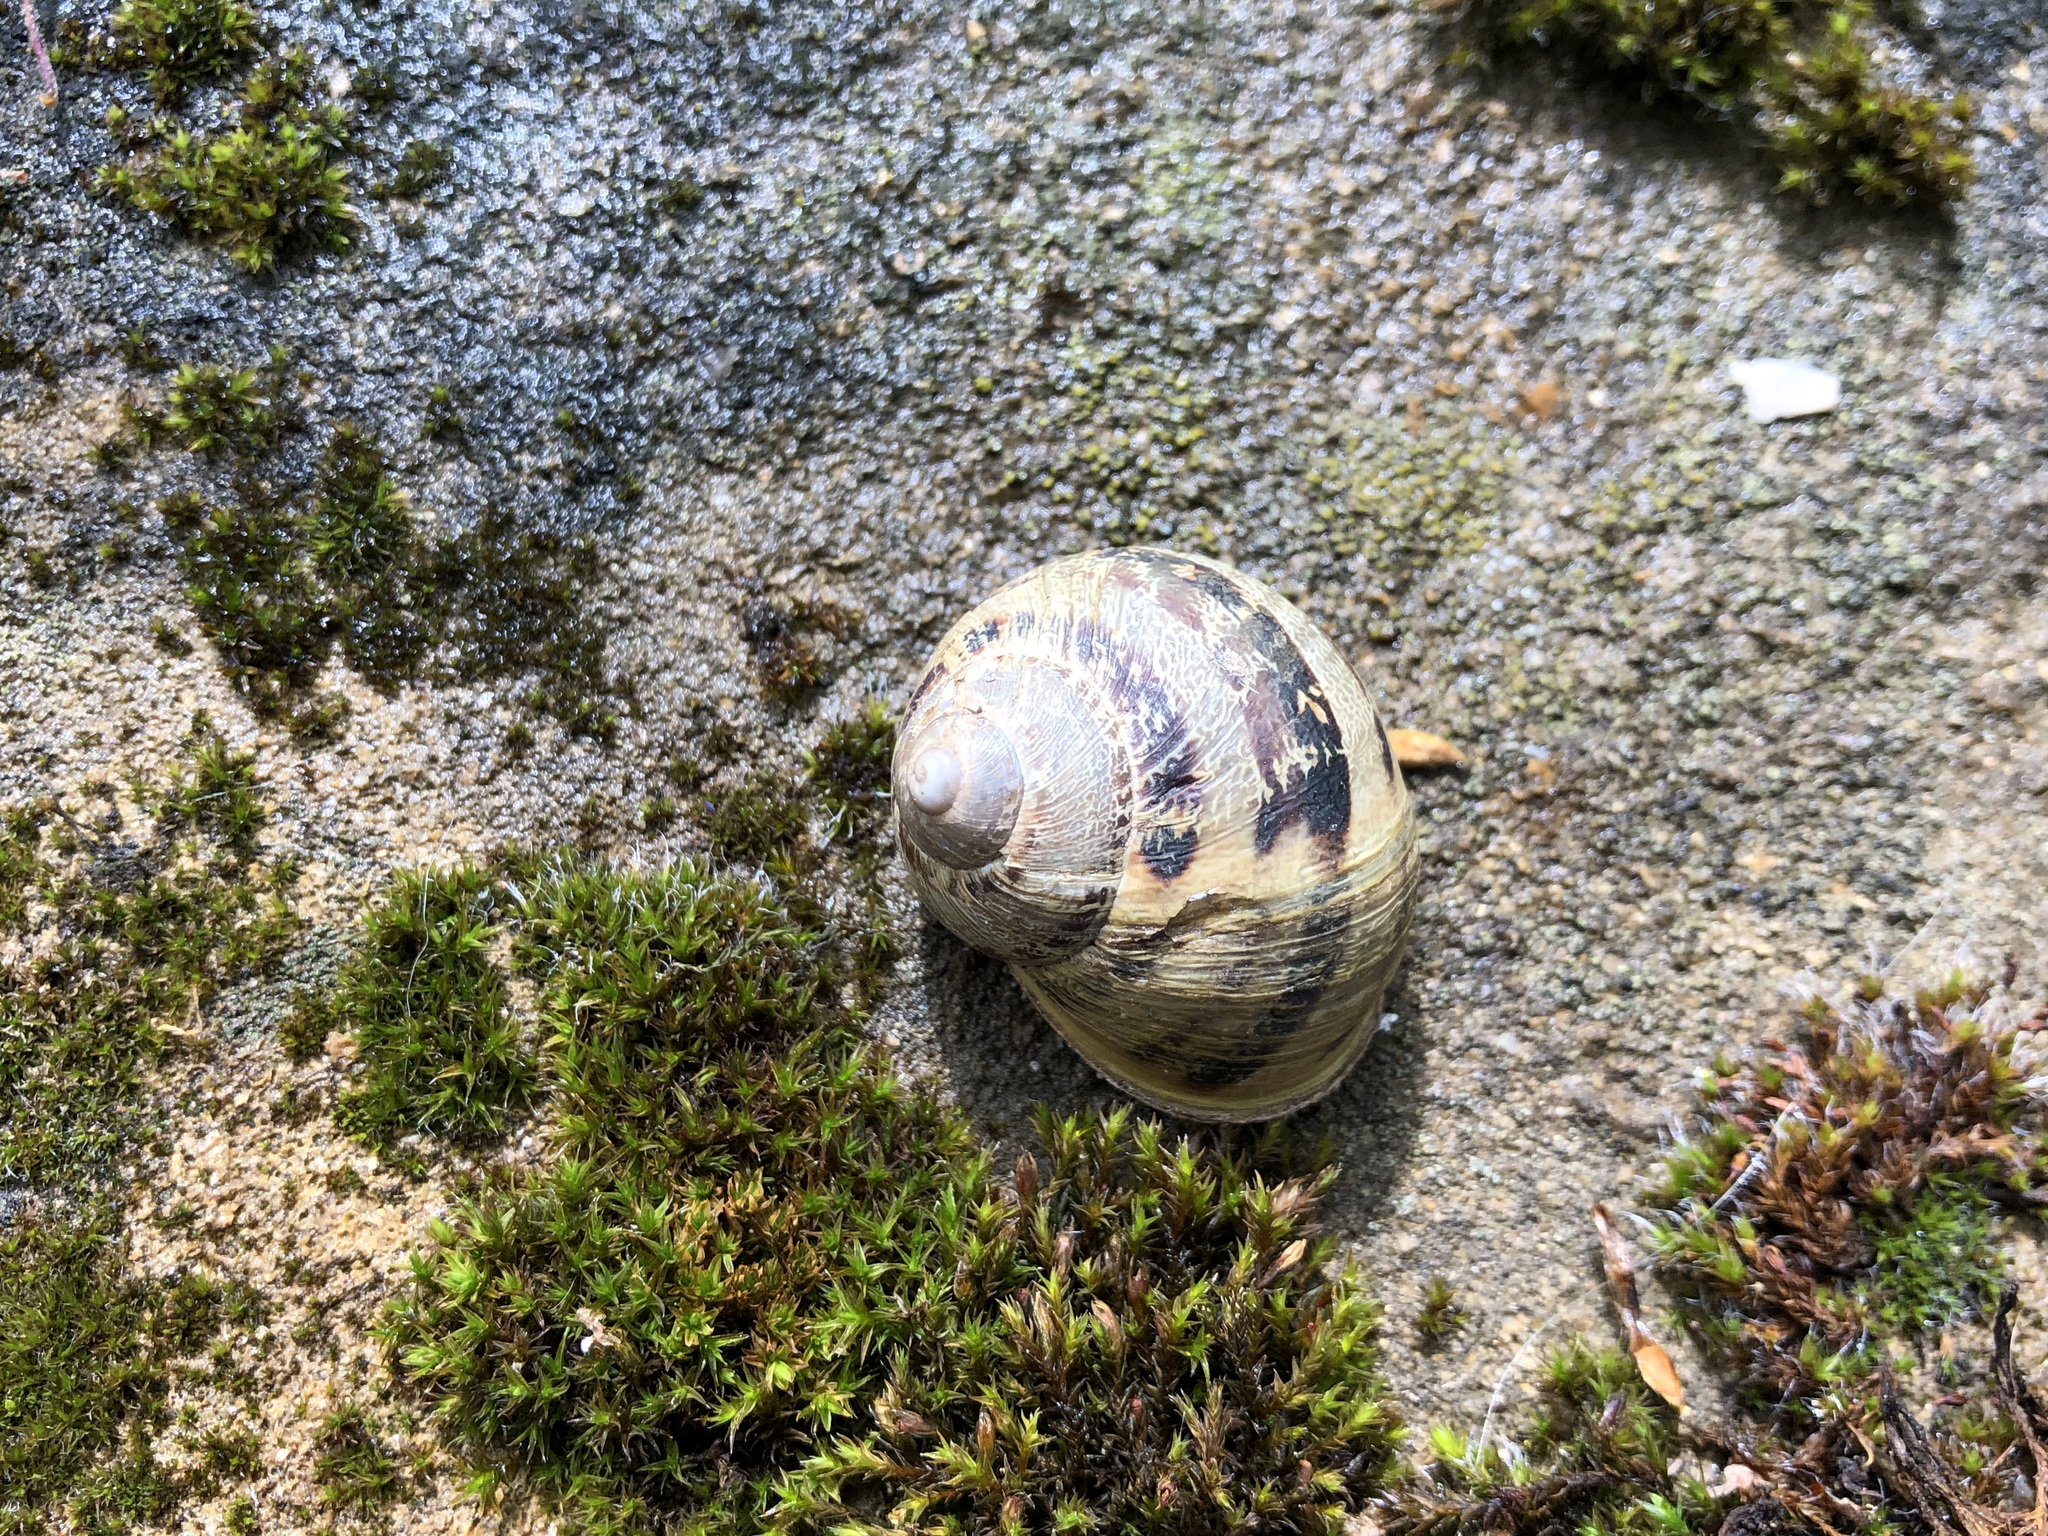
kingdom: Animalia
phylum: Mollusca
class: Gastropoda
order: Stylommatophora
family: Helicidae
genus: Cornu
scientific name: Cornu aspersum
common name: Brown garden snail
